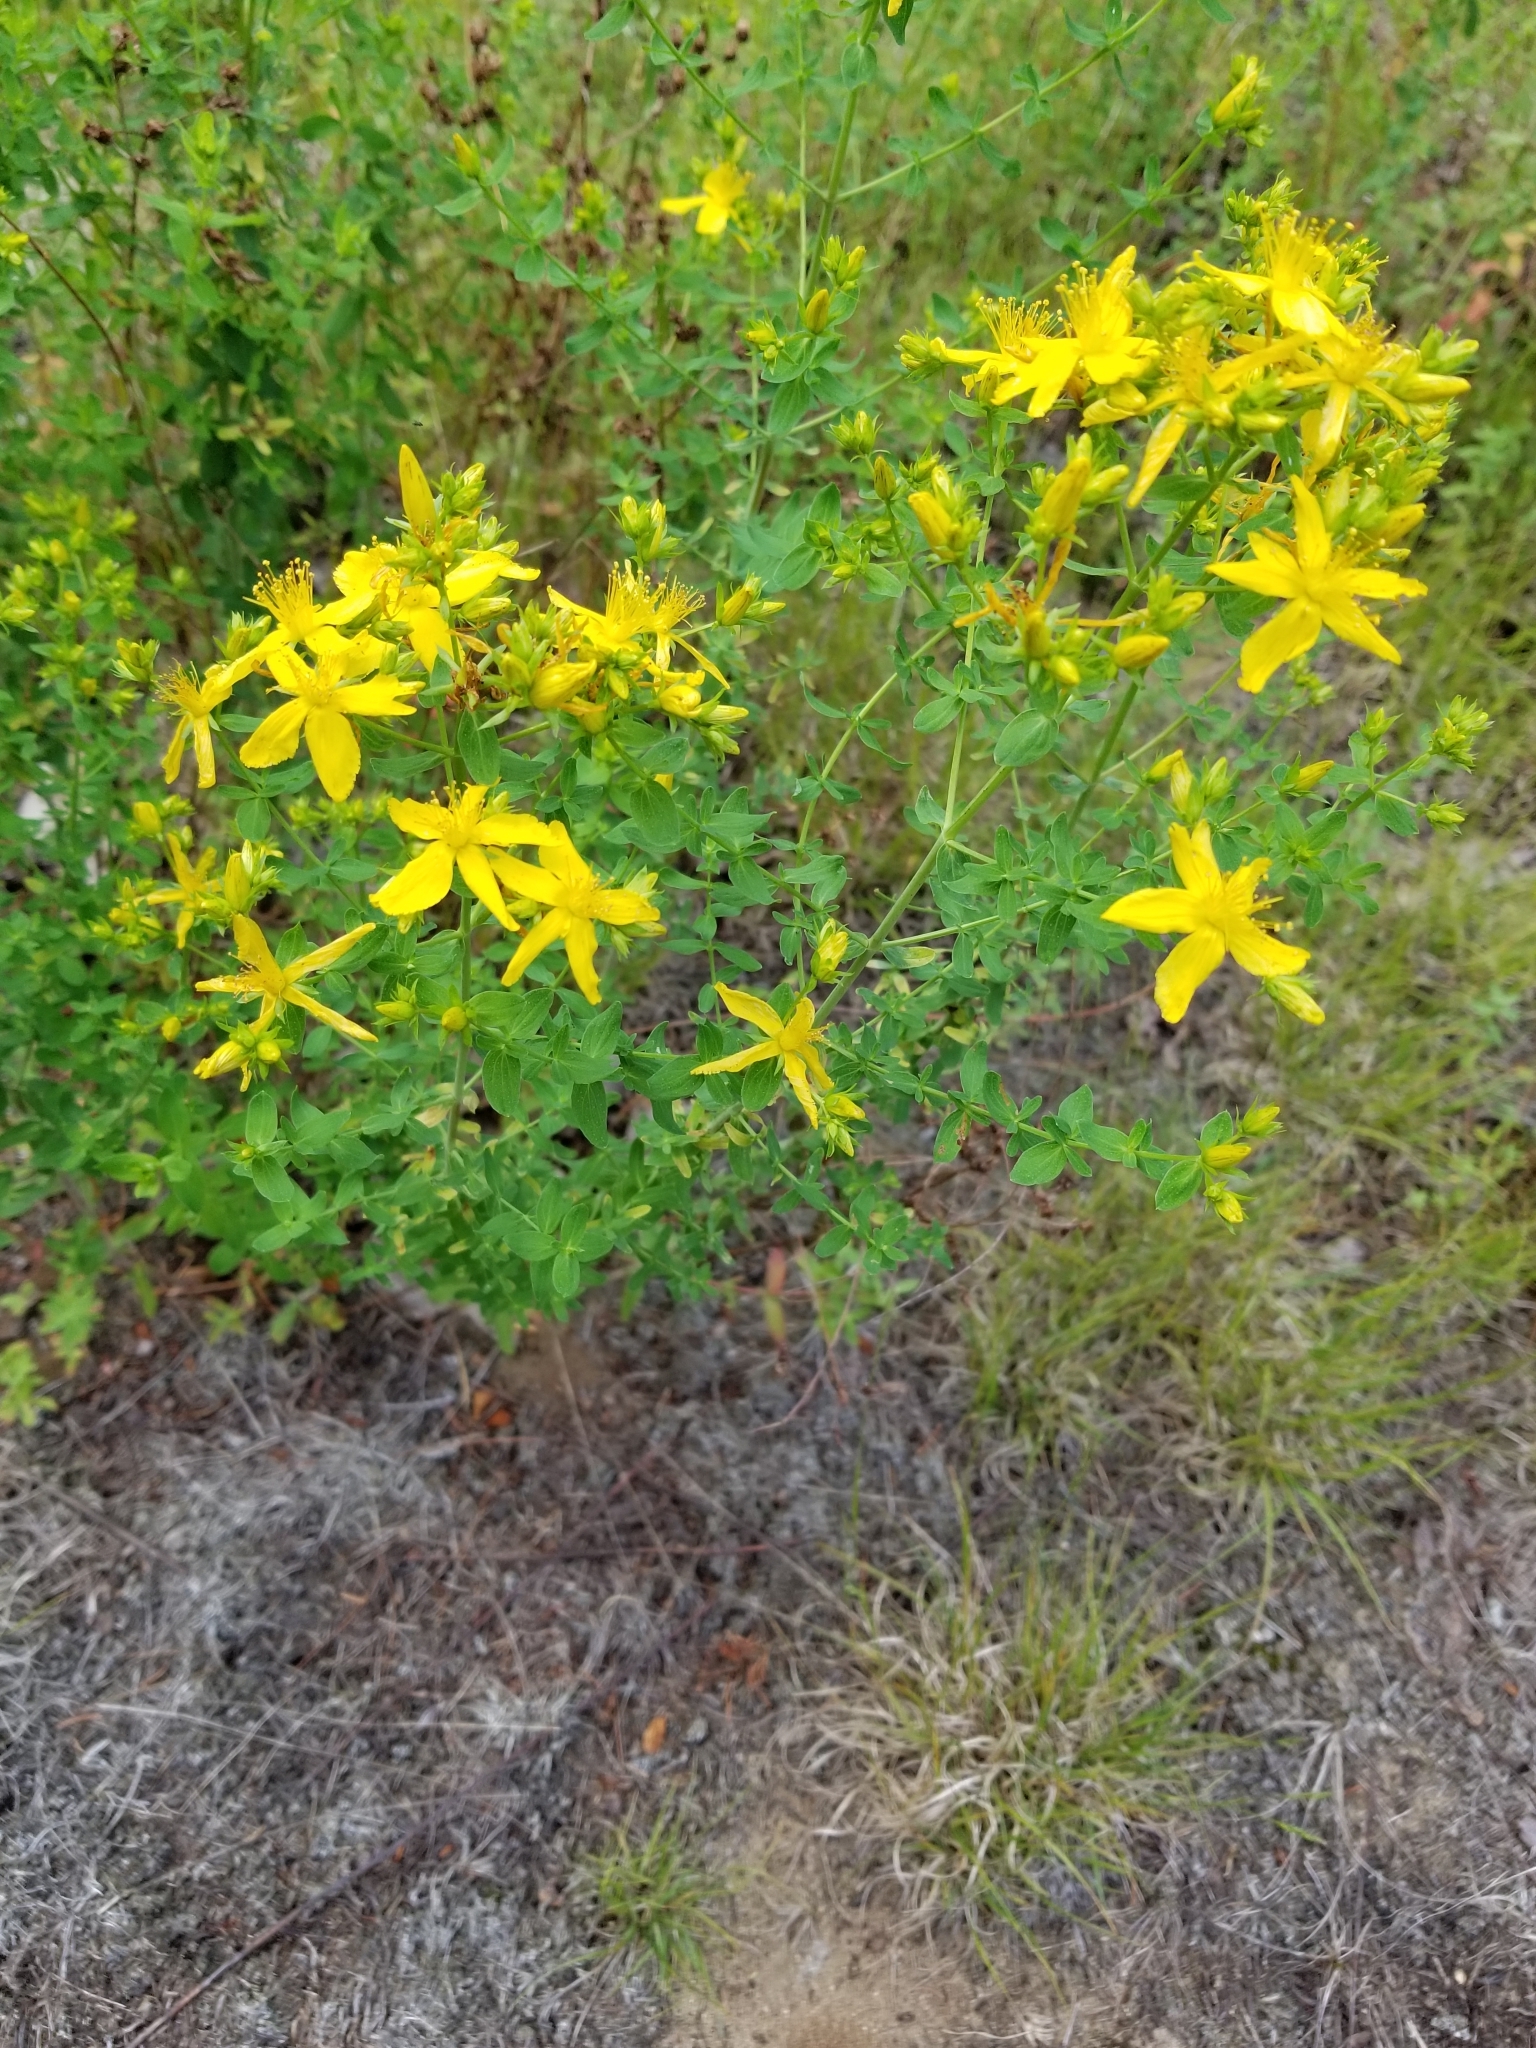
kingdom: Plantae
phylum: Tracheophyta
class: Magnoliopsida
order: Malpighiales
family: Hypericaceae
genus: Hypericum
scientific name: Hypericum perforatum
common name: Common st. johnswort
